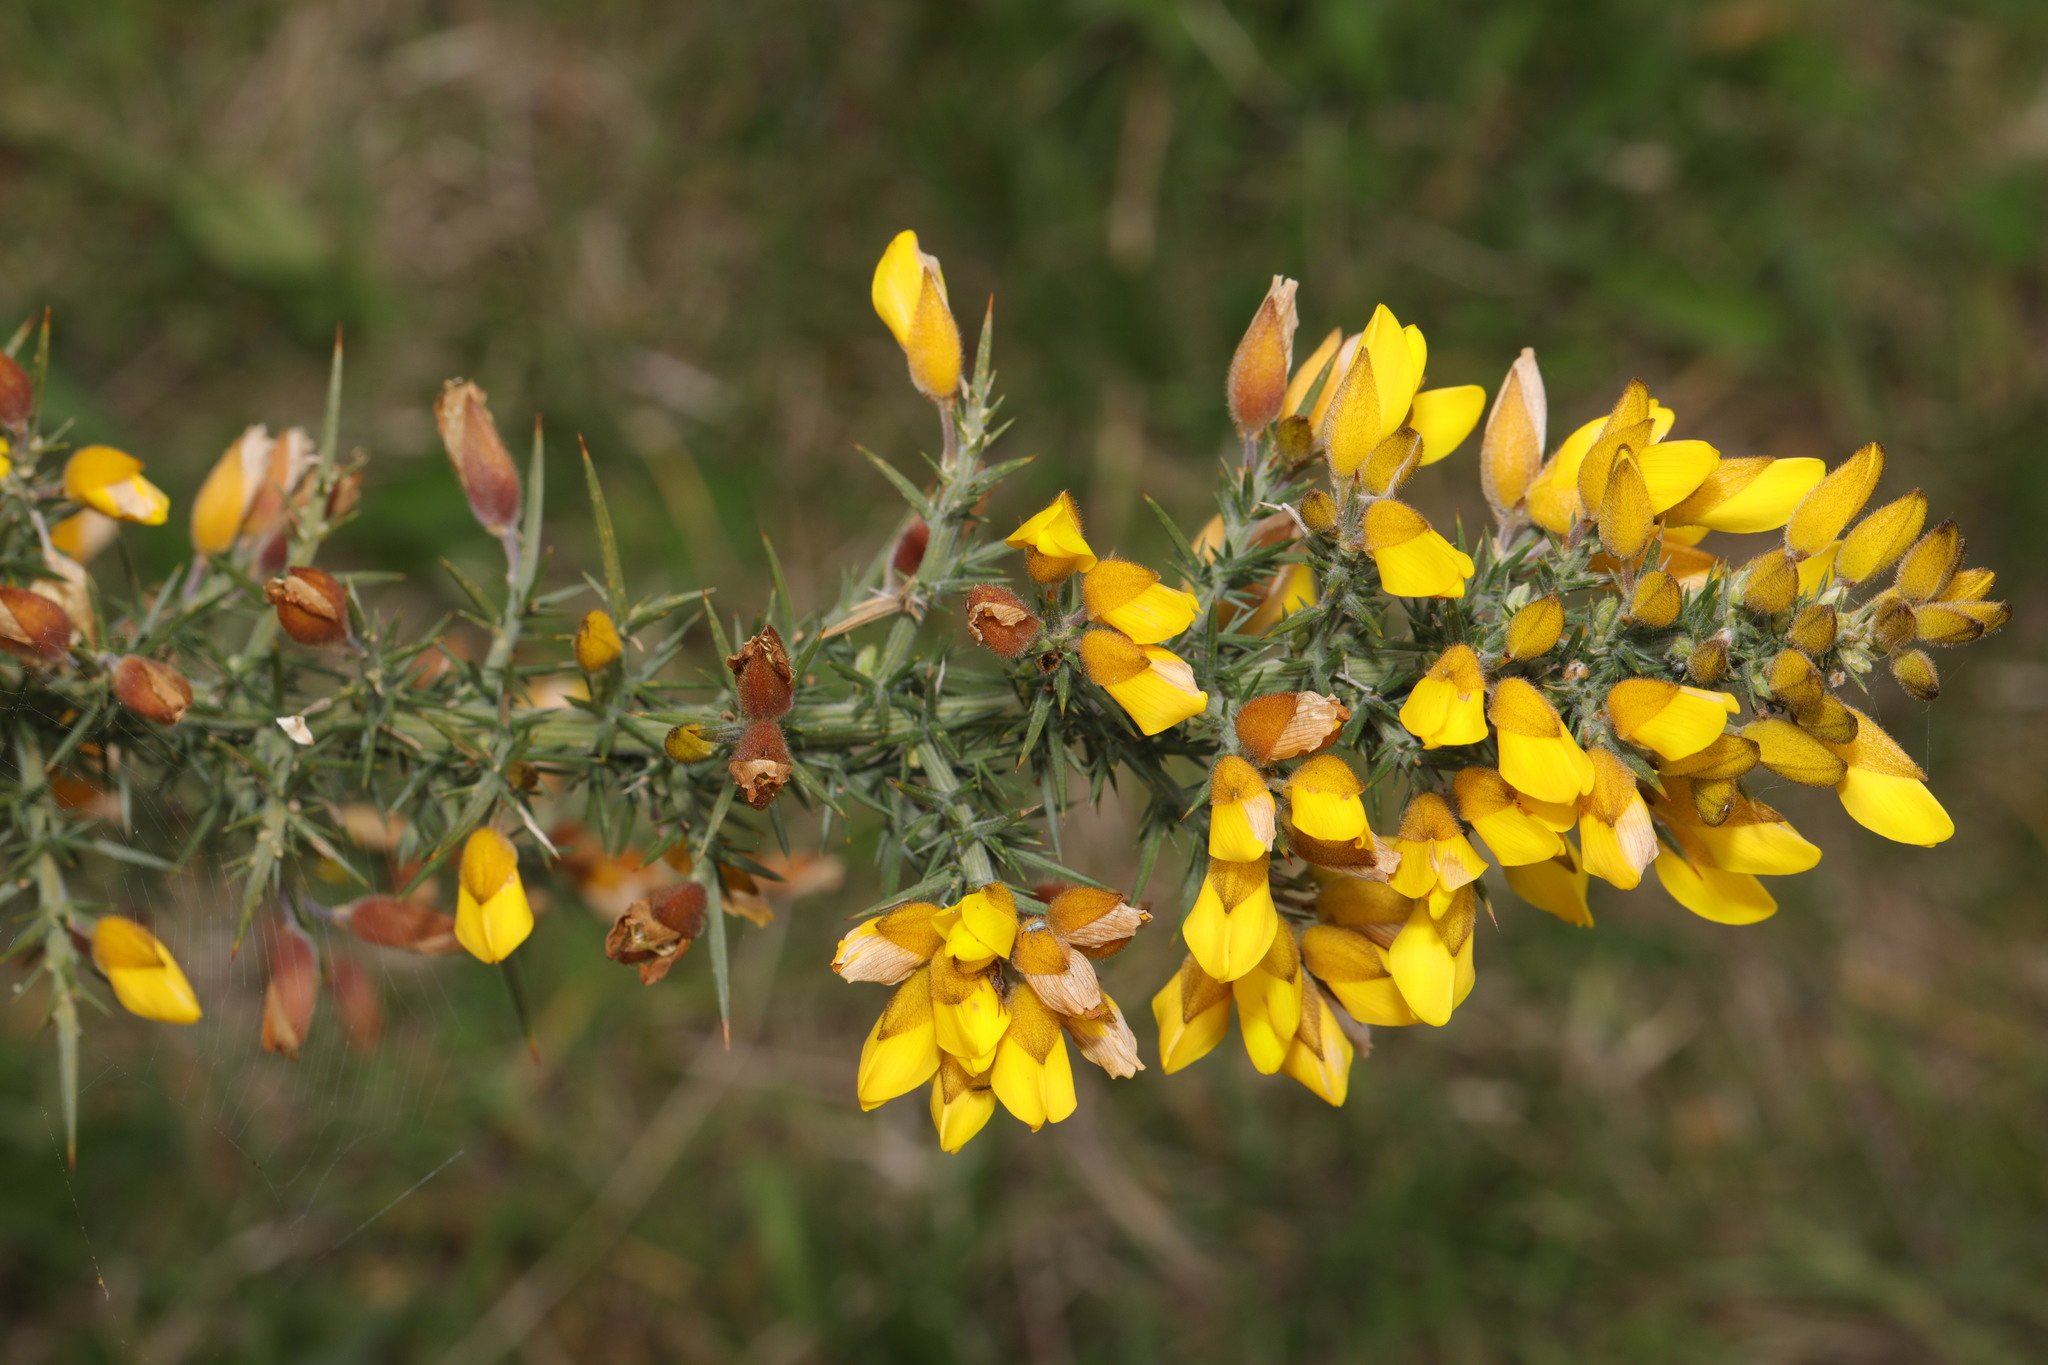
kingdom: Plantae
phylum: Tracheophyta
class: Magnoliopsida
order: Fabales
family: Fabaceae
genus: Ulex
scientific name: Ulex europaeus
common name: Common gorse
